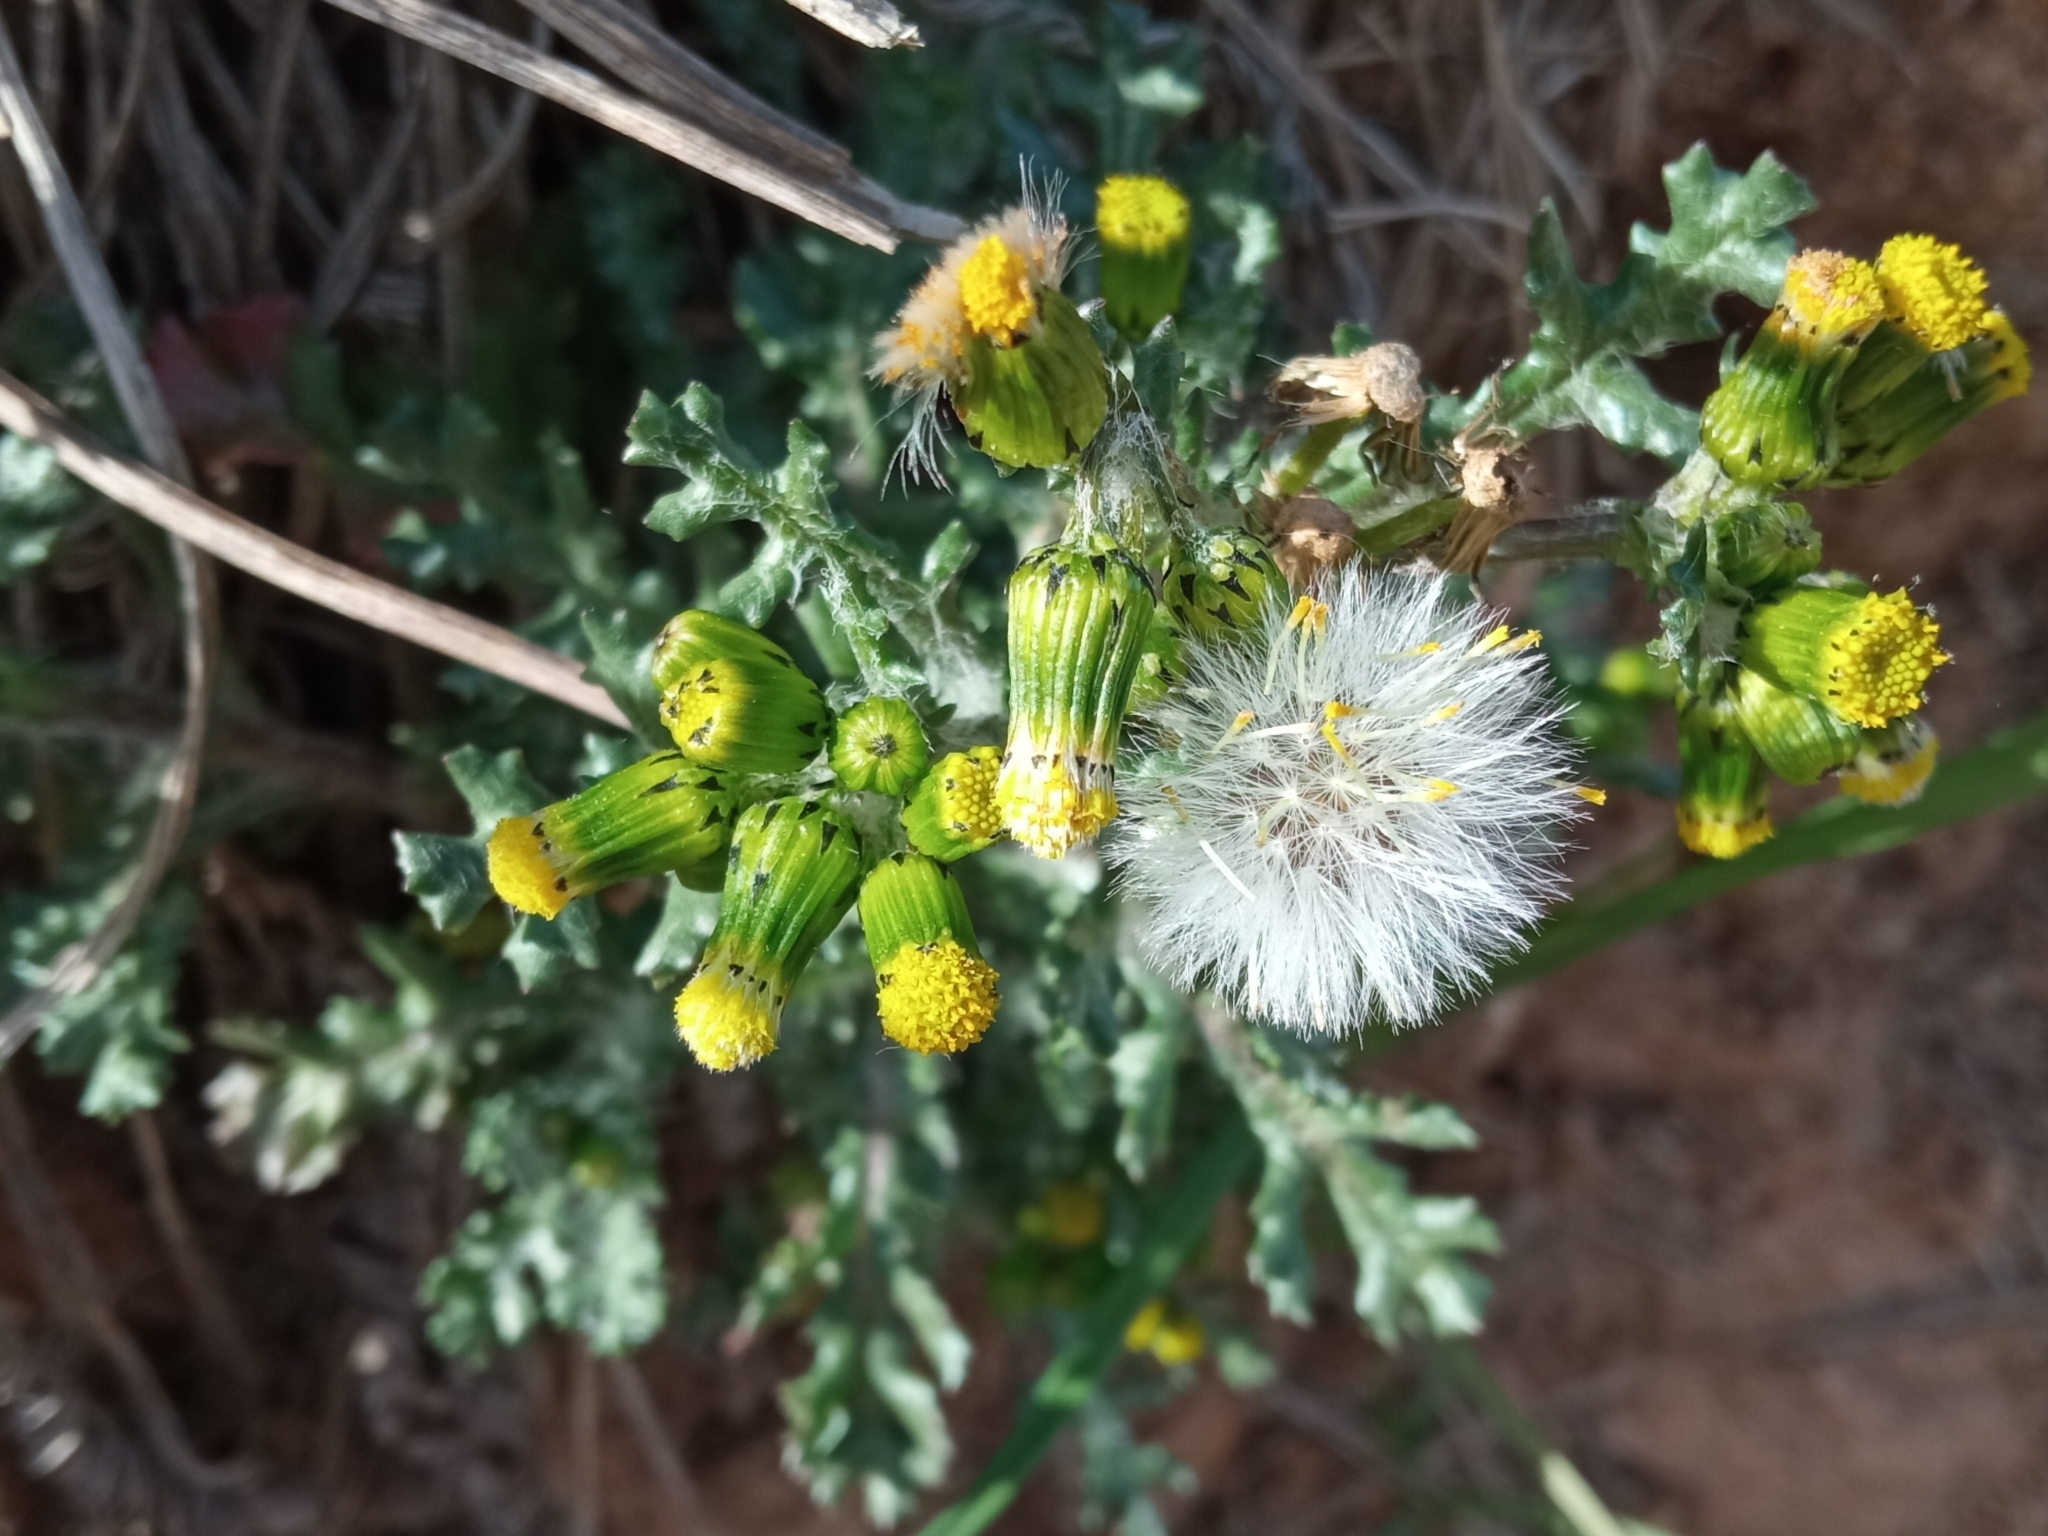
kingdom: Plantae
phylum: Tracheophyta
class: Magnoliopsida
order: Asterales
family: Asteraceae
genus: Senecio
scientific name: Senecio vulgaris
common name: Old-man-in-the-spring
